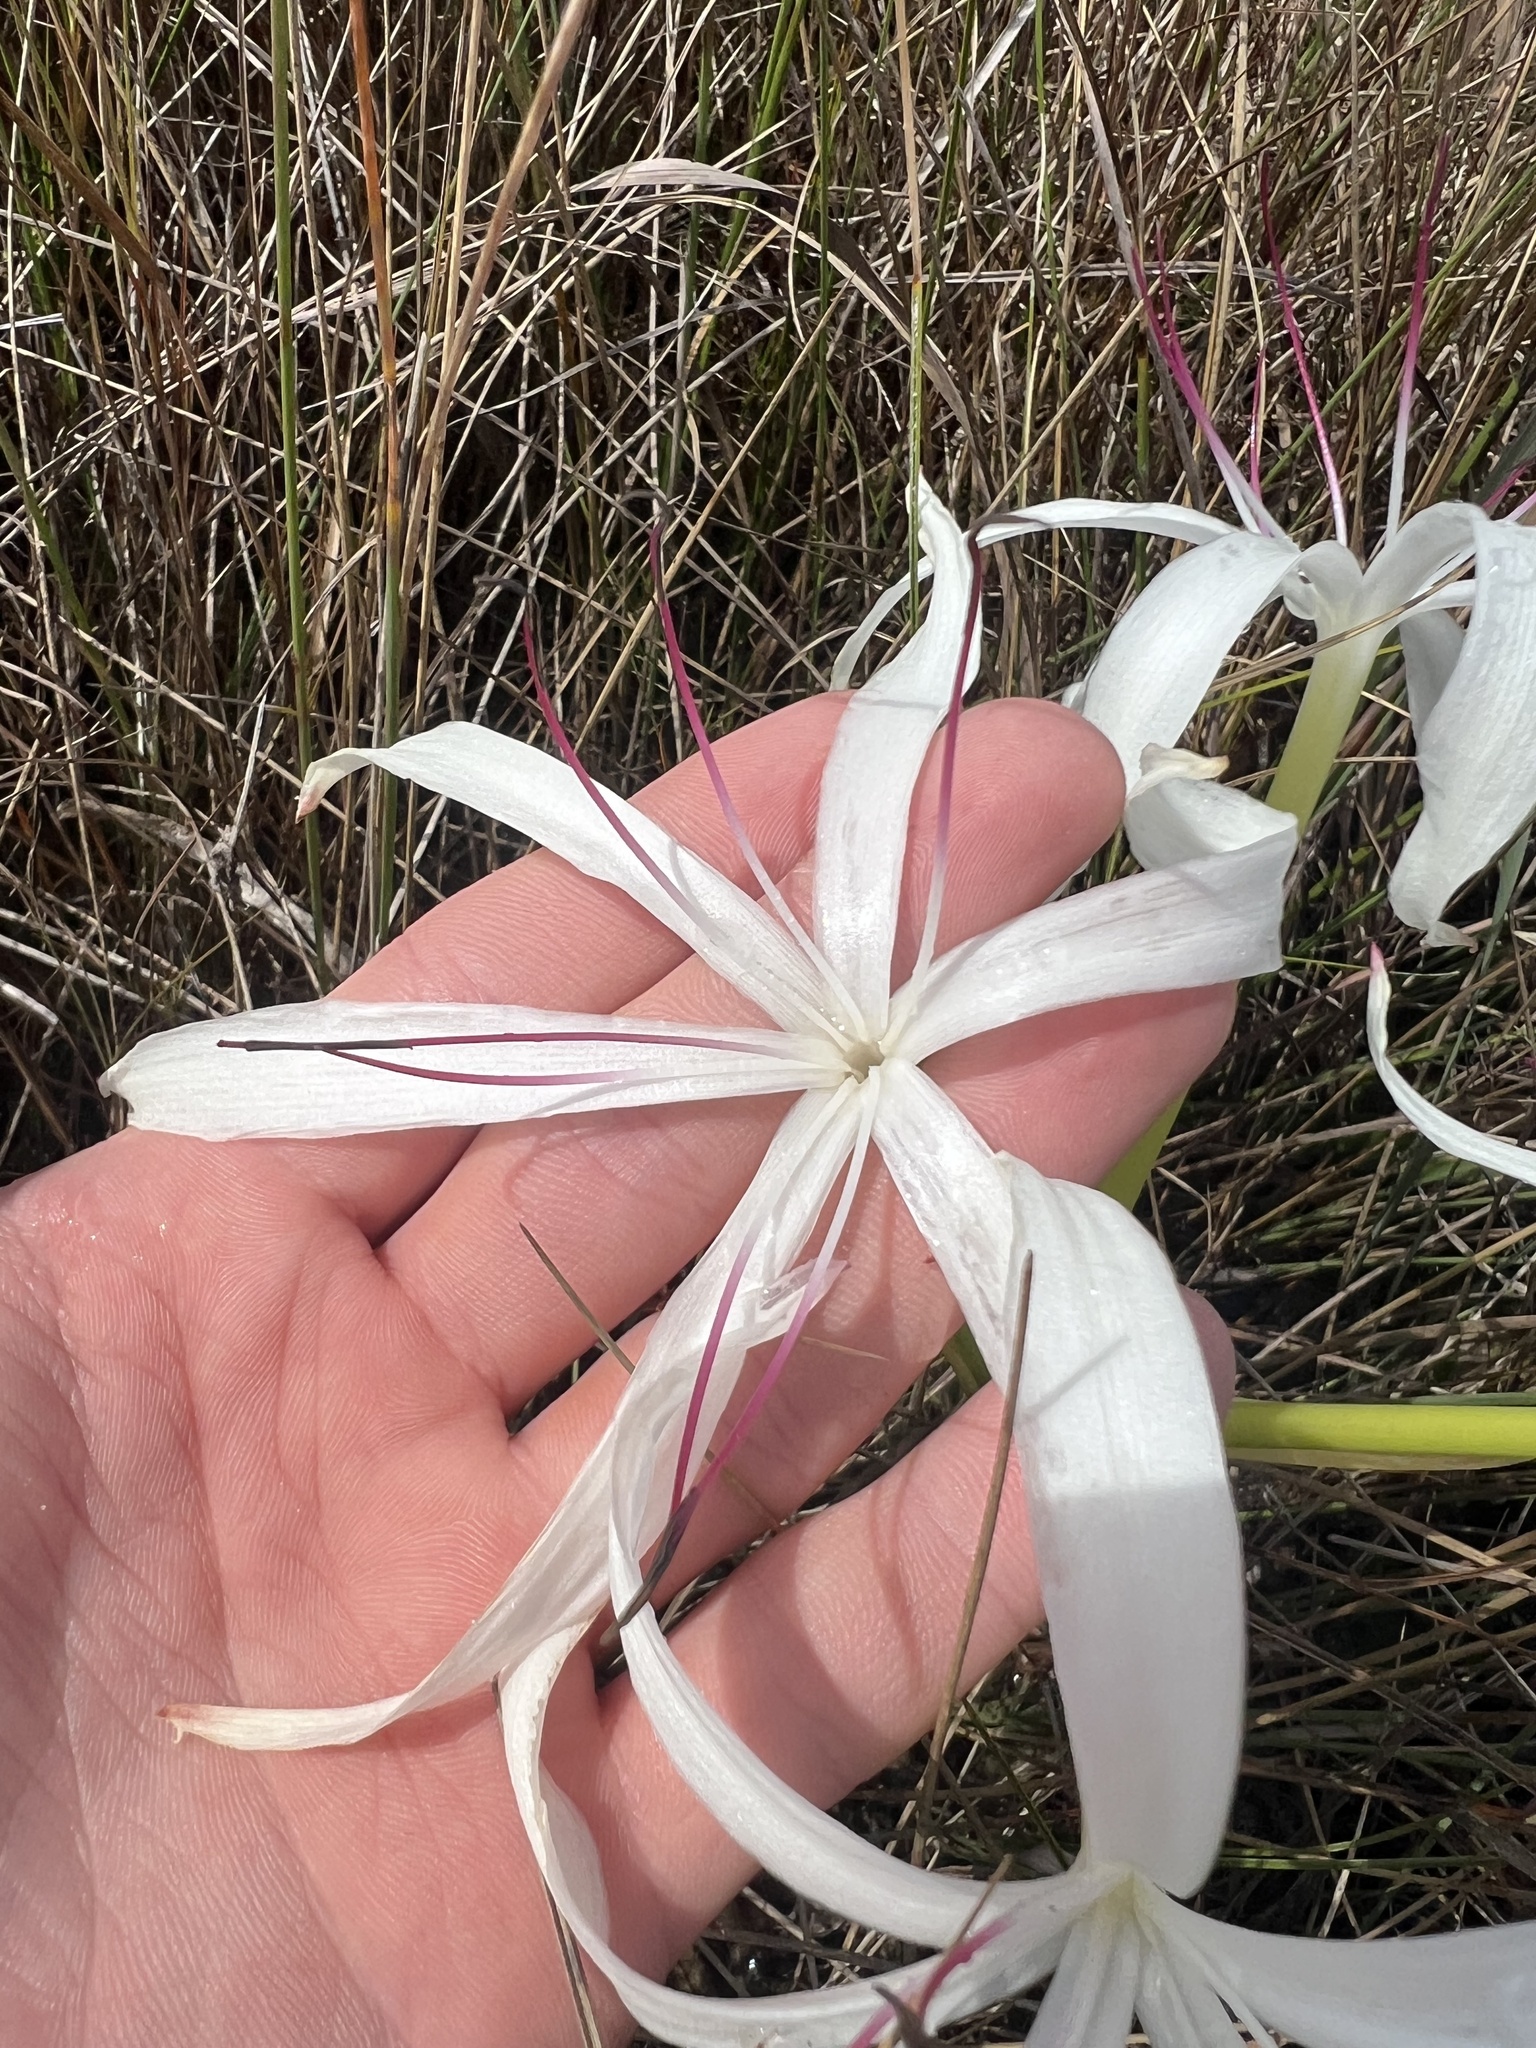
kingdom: Plantae
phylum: Tracheophyta
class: Liliopsida
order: Asparagales
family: Amaryllidaceae
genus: Crinum
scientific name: Crinum americanum
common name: Florida swamp-lily
